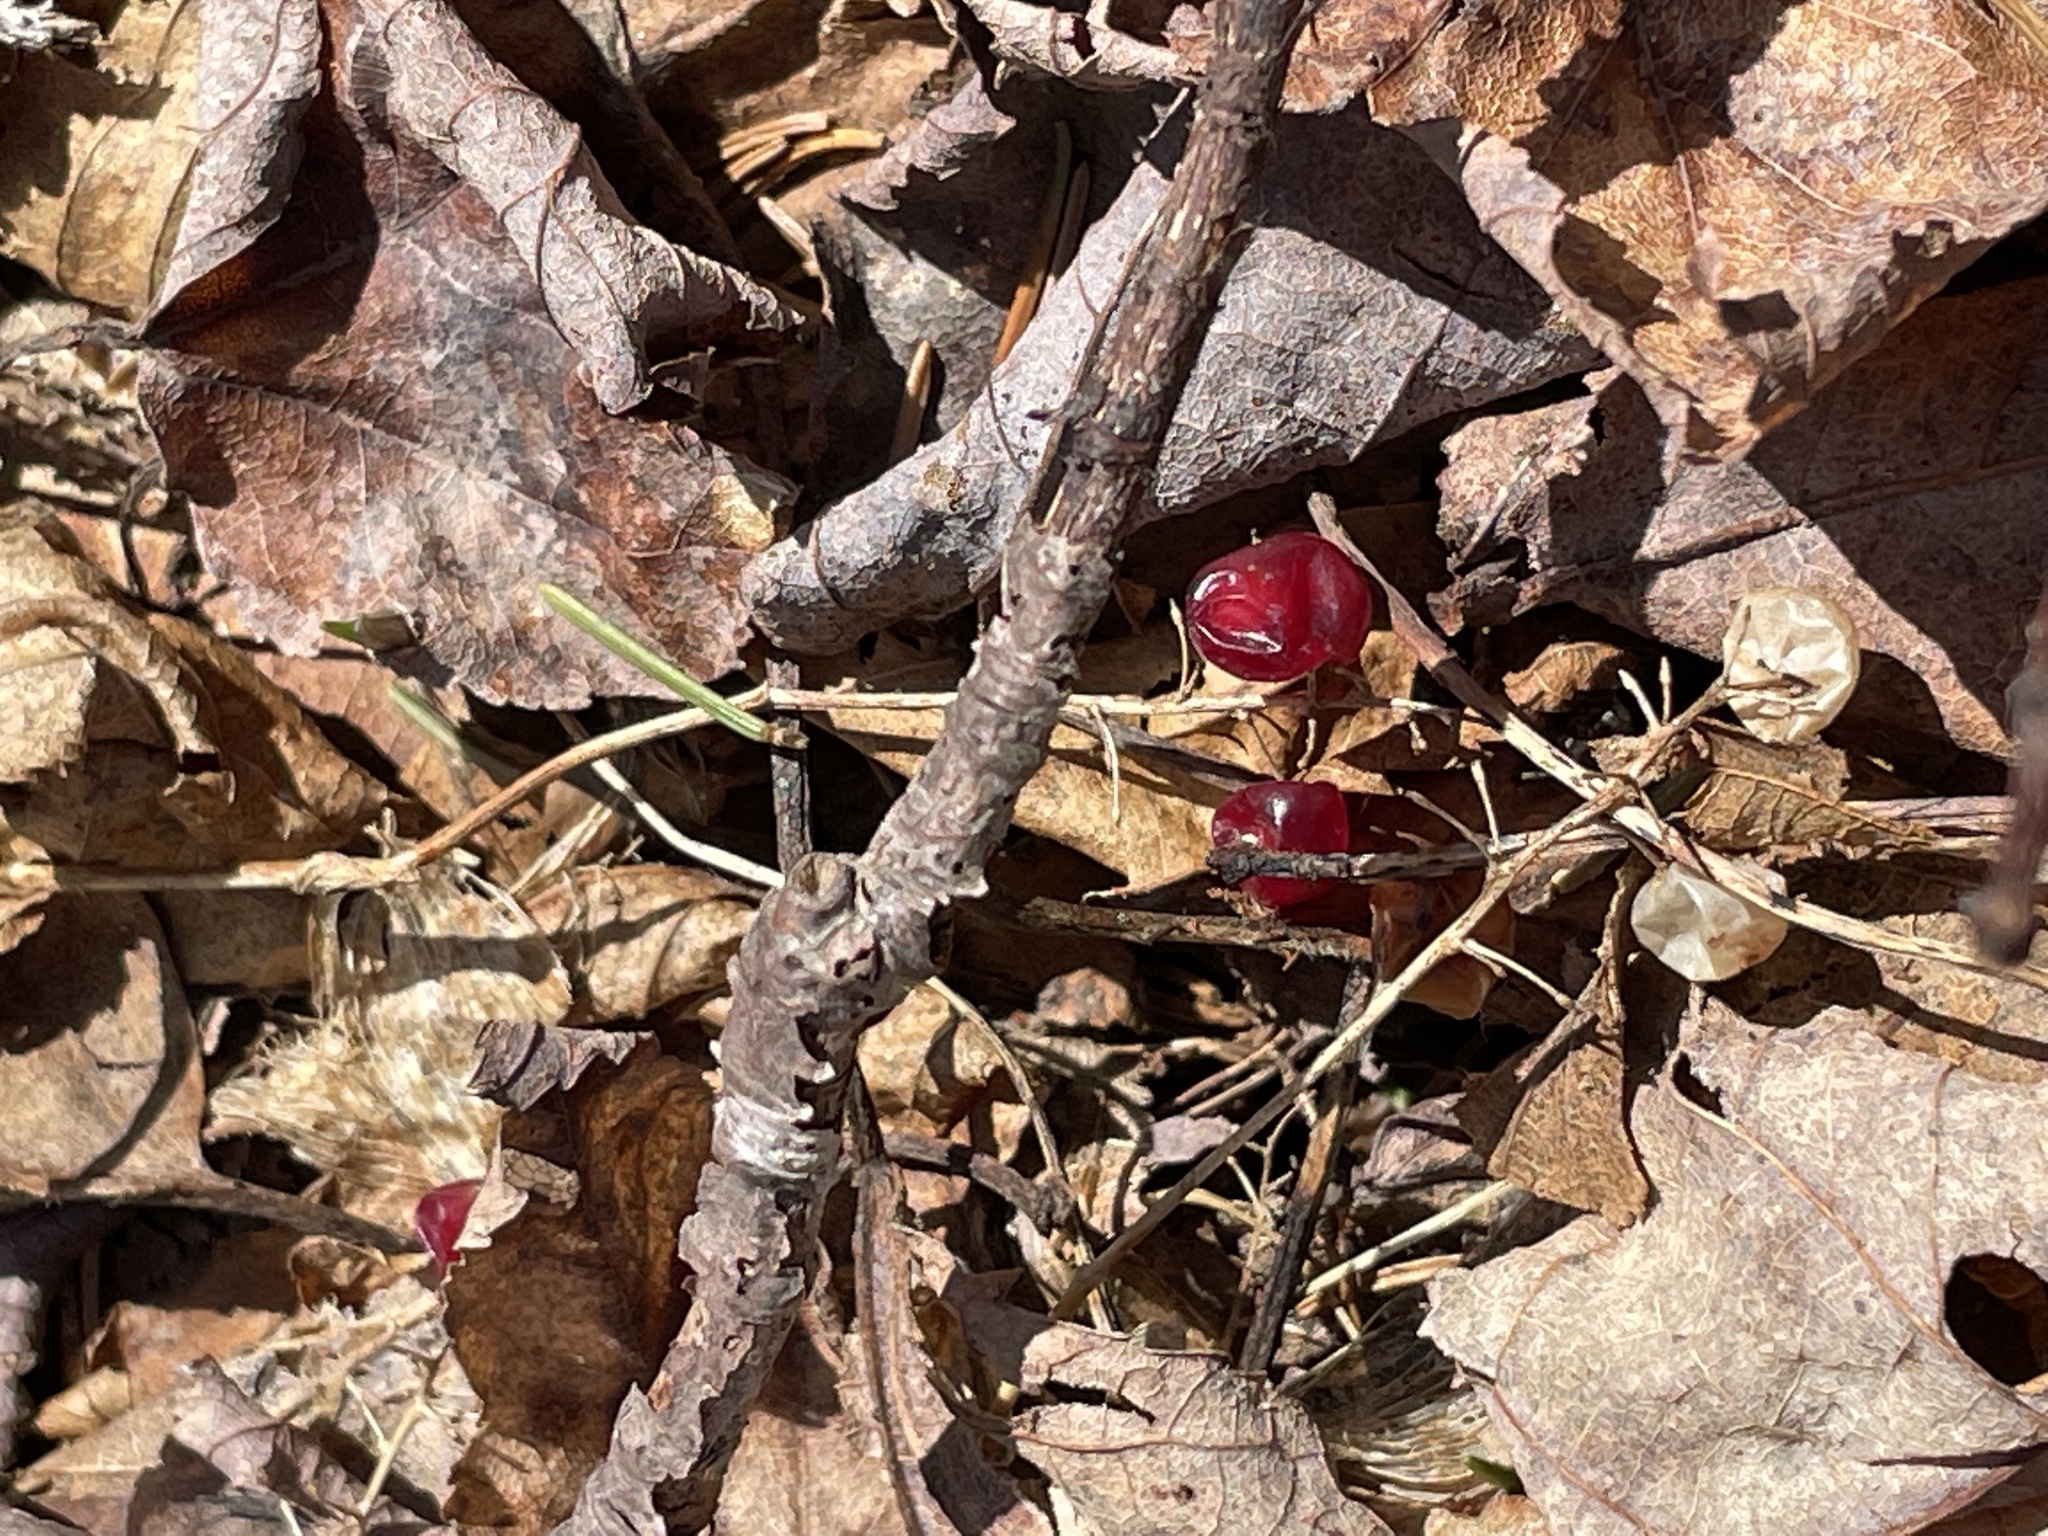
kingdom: Plantae
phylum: Tracheophyta
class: Liliopsida
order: Asparagales
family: Asparagaceae
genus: Maianthemum
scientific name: Maianthemum canadense
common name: False lily-of-the-valley
